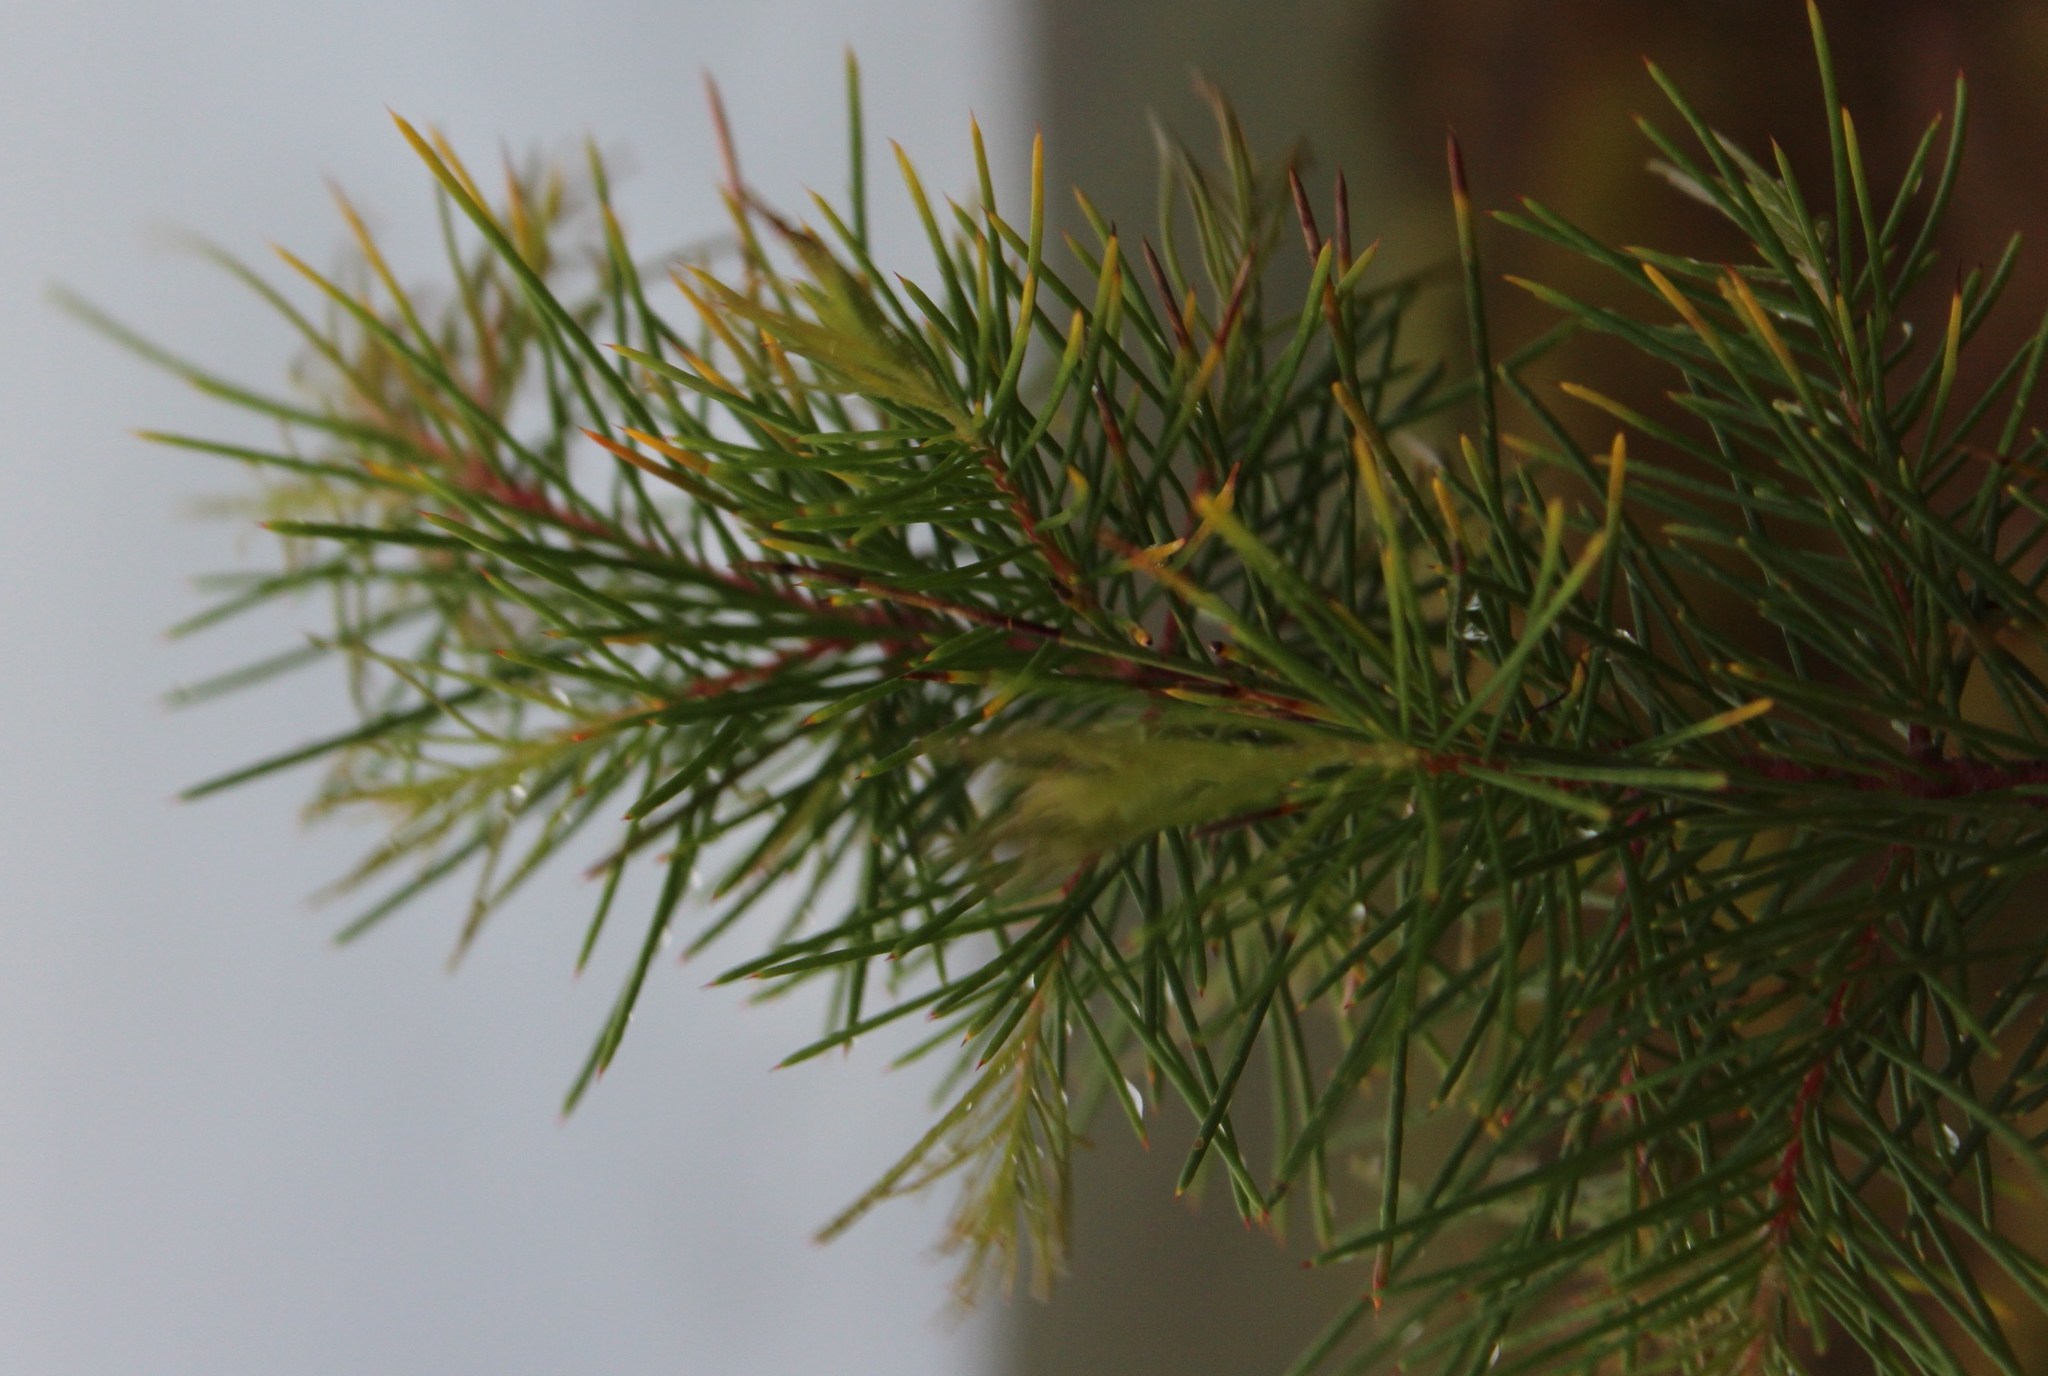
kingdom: Plantae
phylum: Tracheophyta
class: Magnoliopsida
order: Proteales
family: Proteaceae
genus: Hakea
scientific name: Hakea sericea
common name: Needle bush
